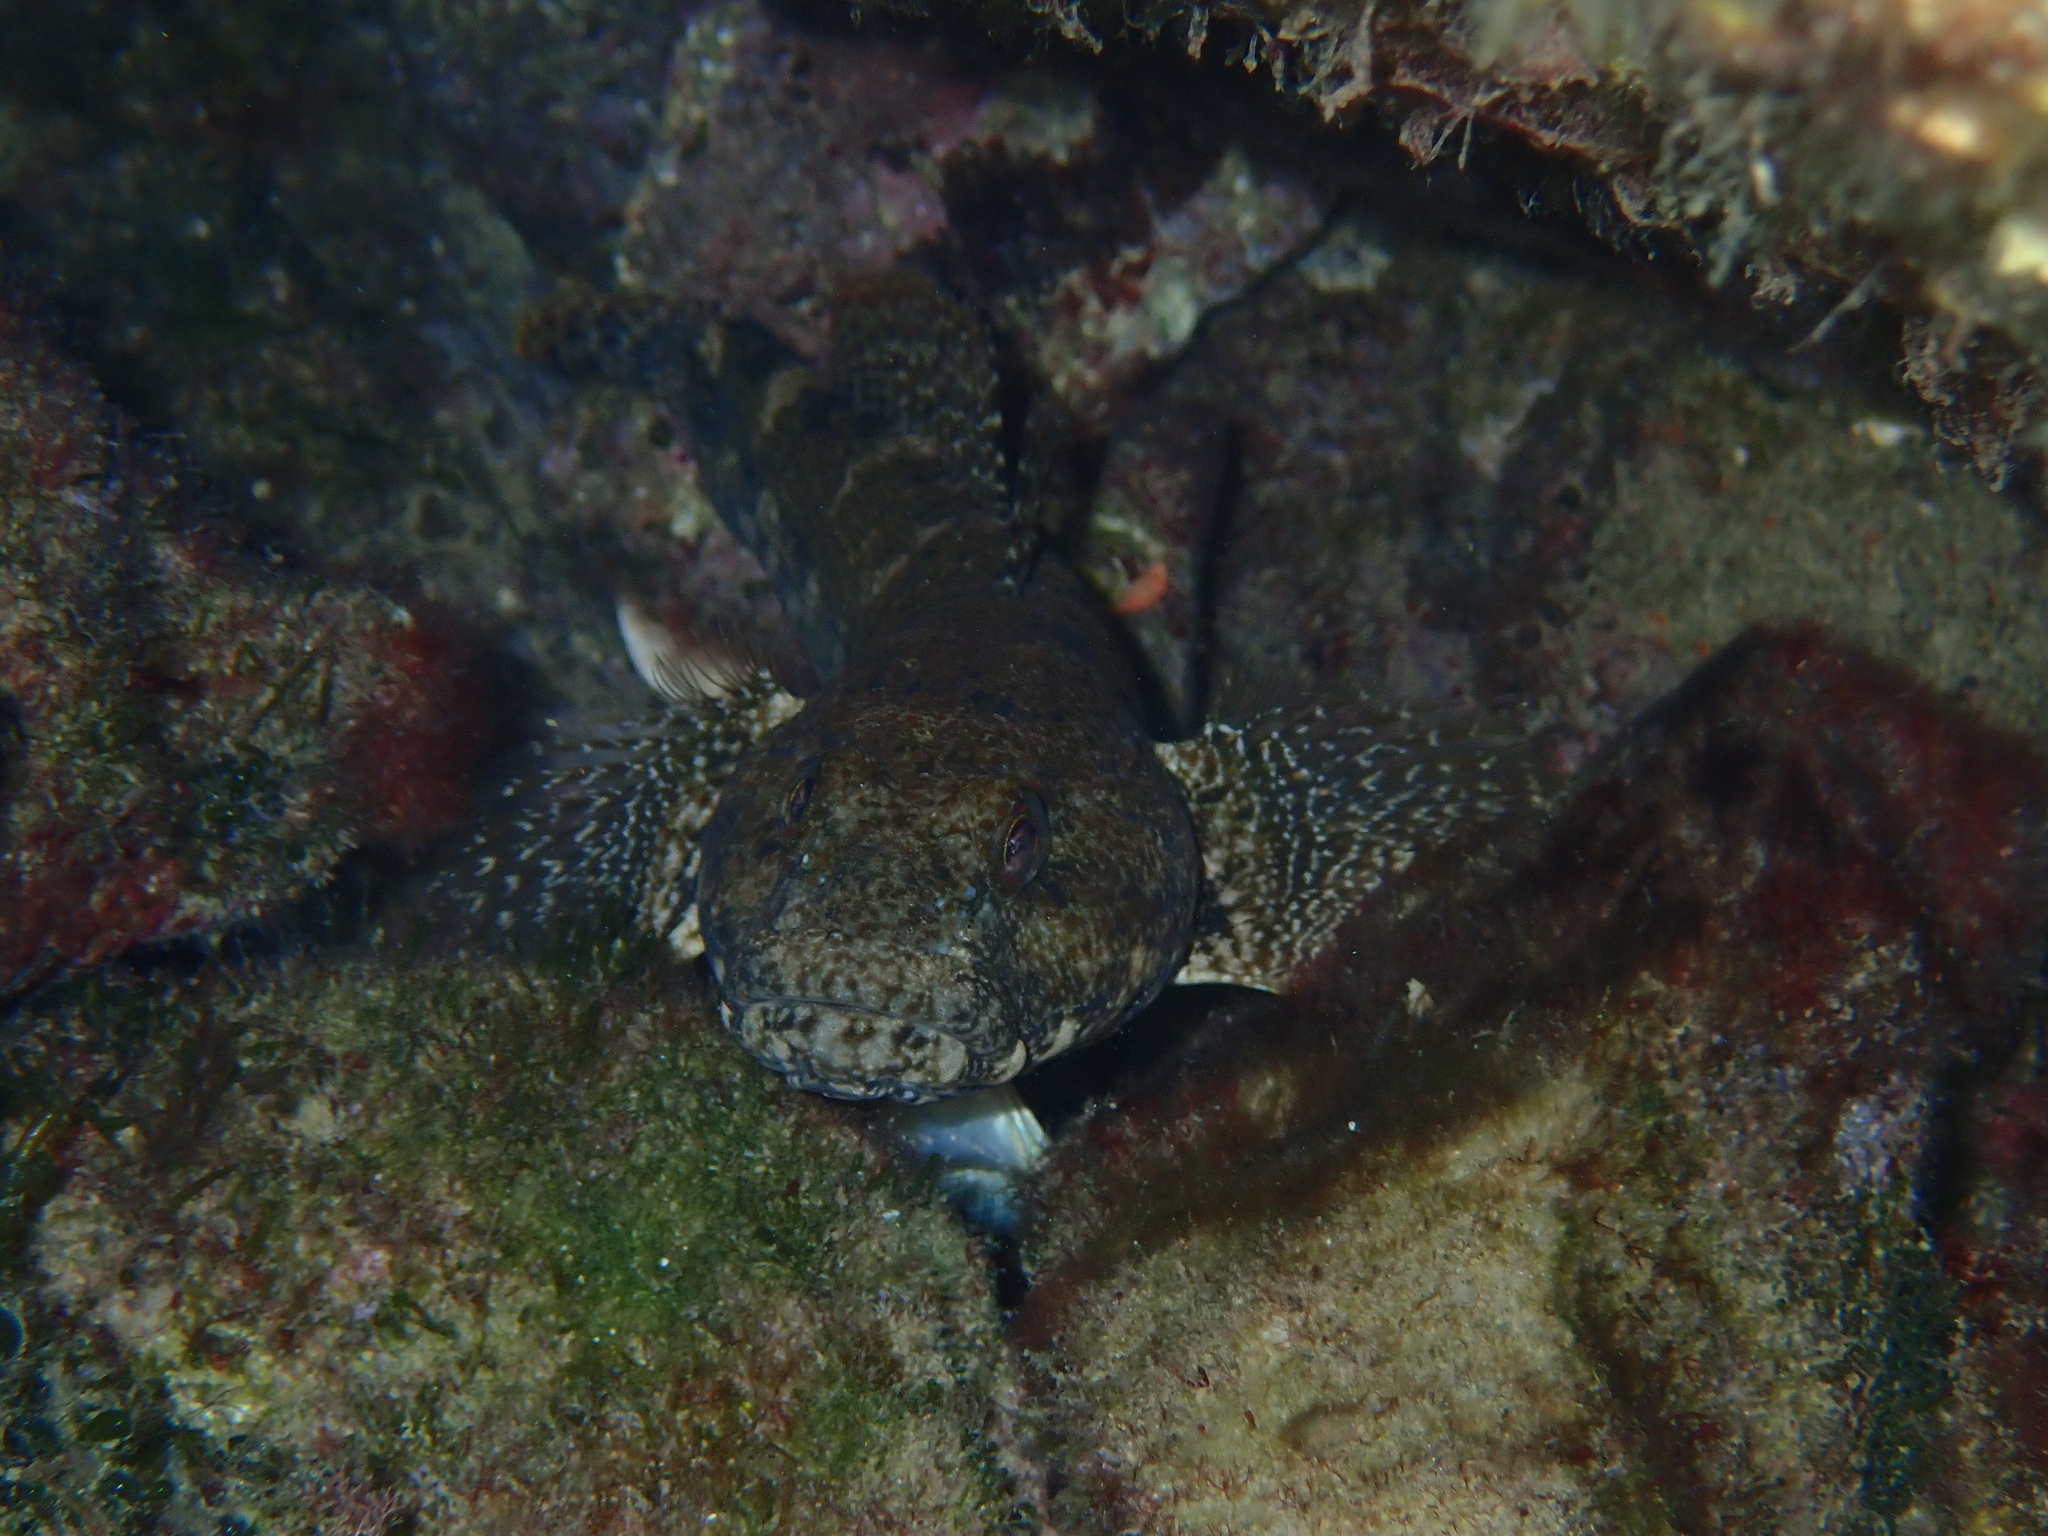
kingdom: Animalia
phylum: Chordata
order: Perciformes
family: Gobiidae
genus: Gobius
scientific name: Gobius cobitis
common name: Giant goby
